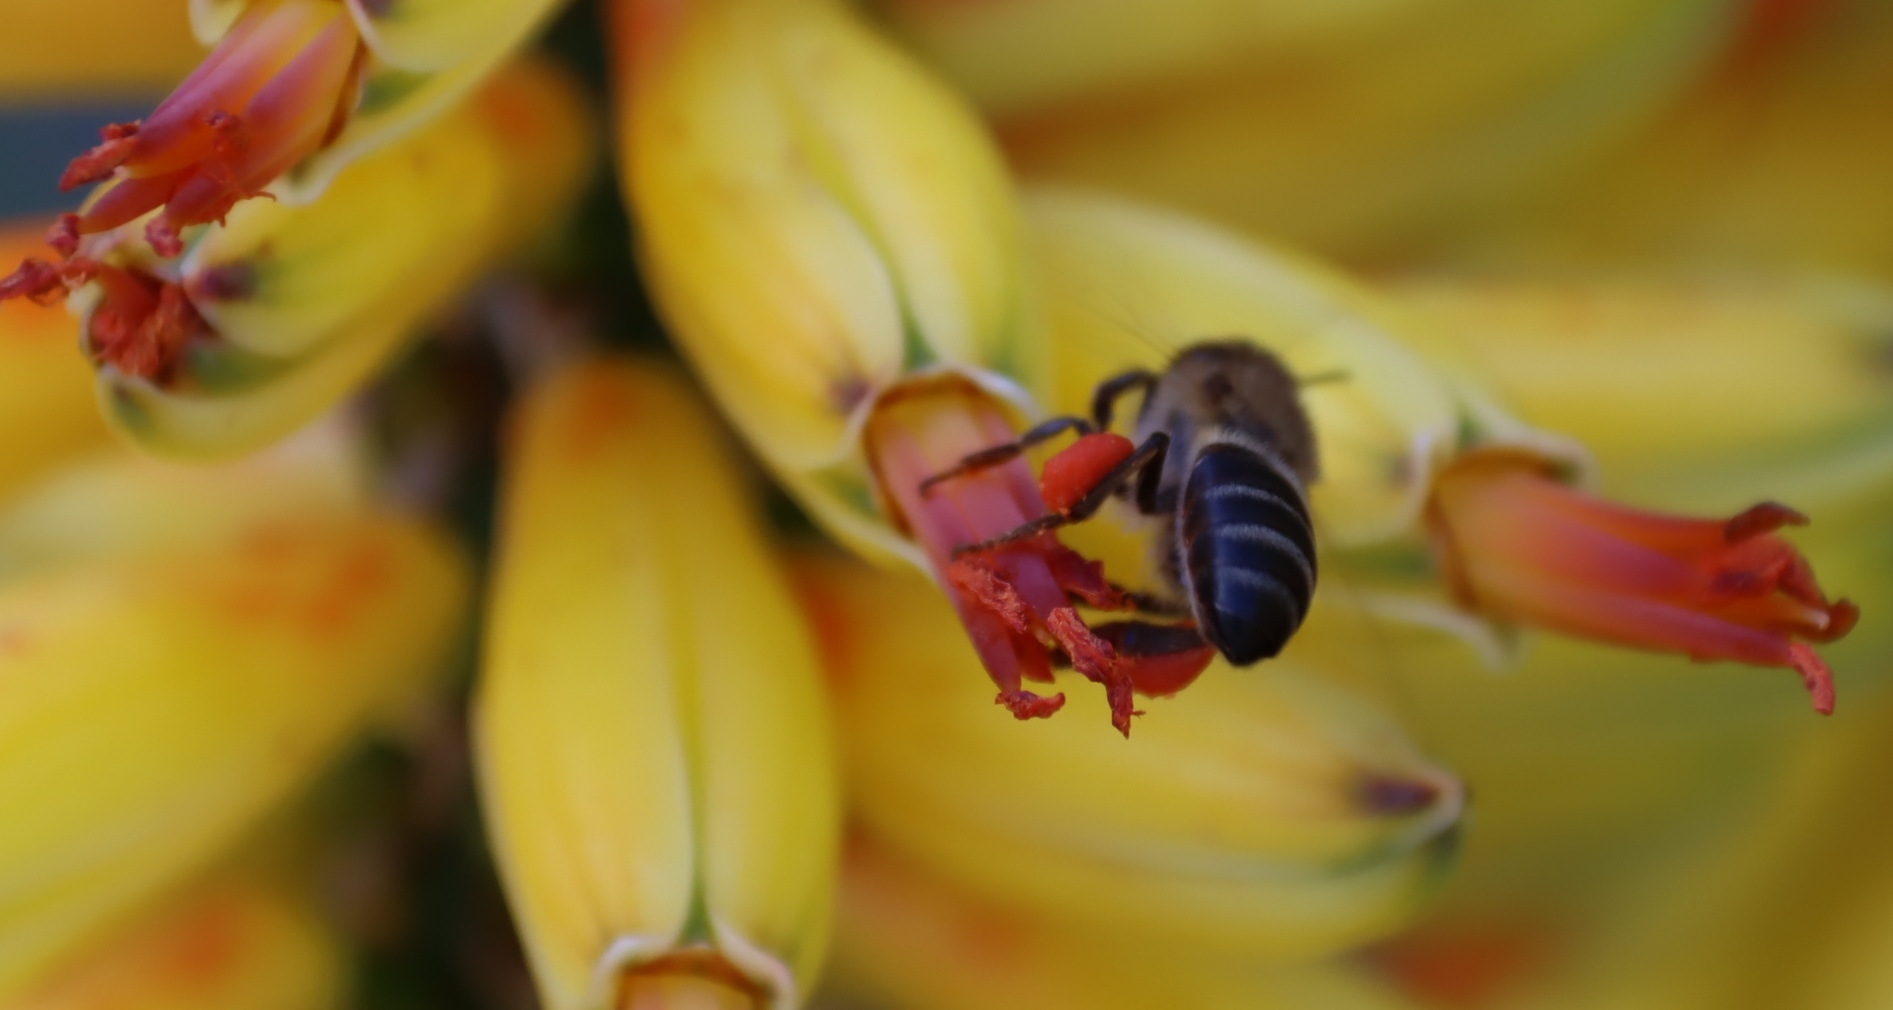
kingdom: Animalia
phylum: Arthropoda
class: Insecta
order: Hymenoptera
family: Apidae
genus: Apis
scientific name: Apis mellifera
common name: Honey bee
